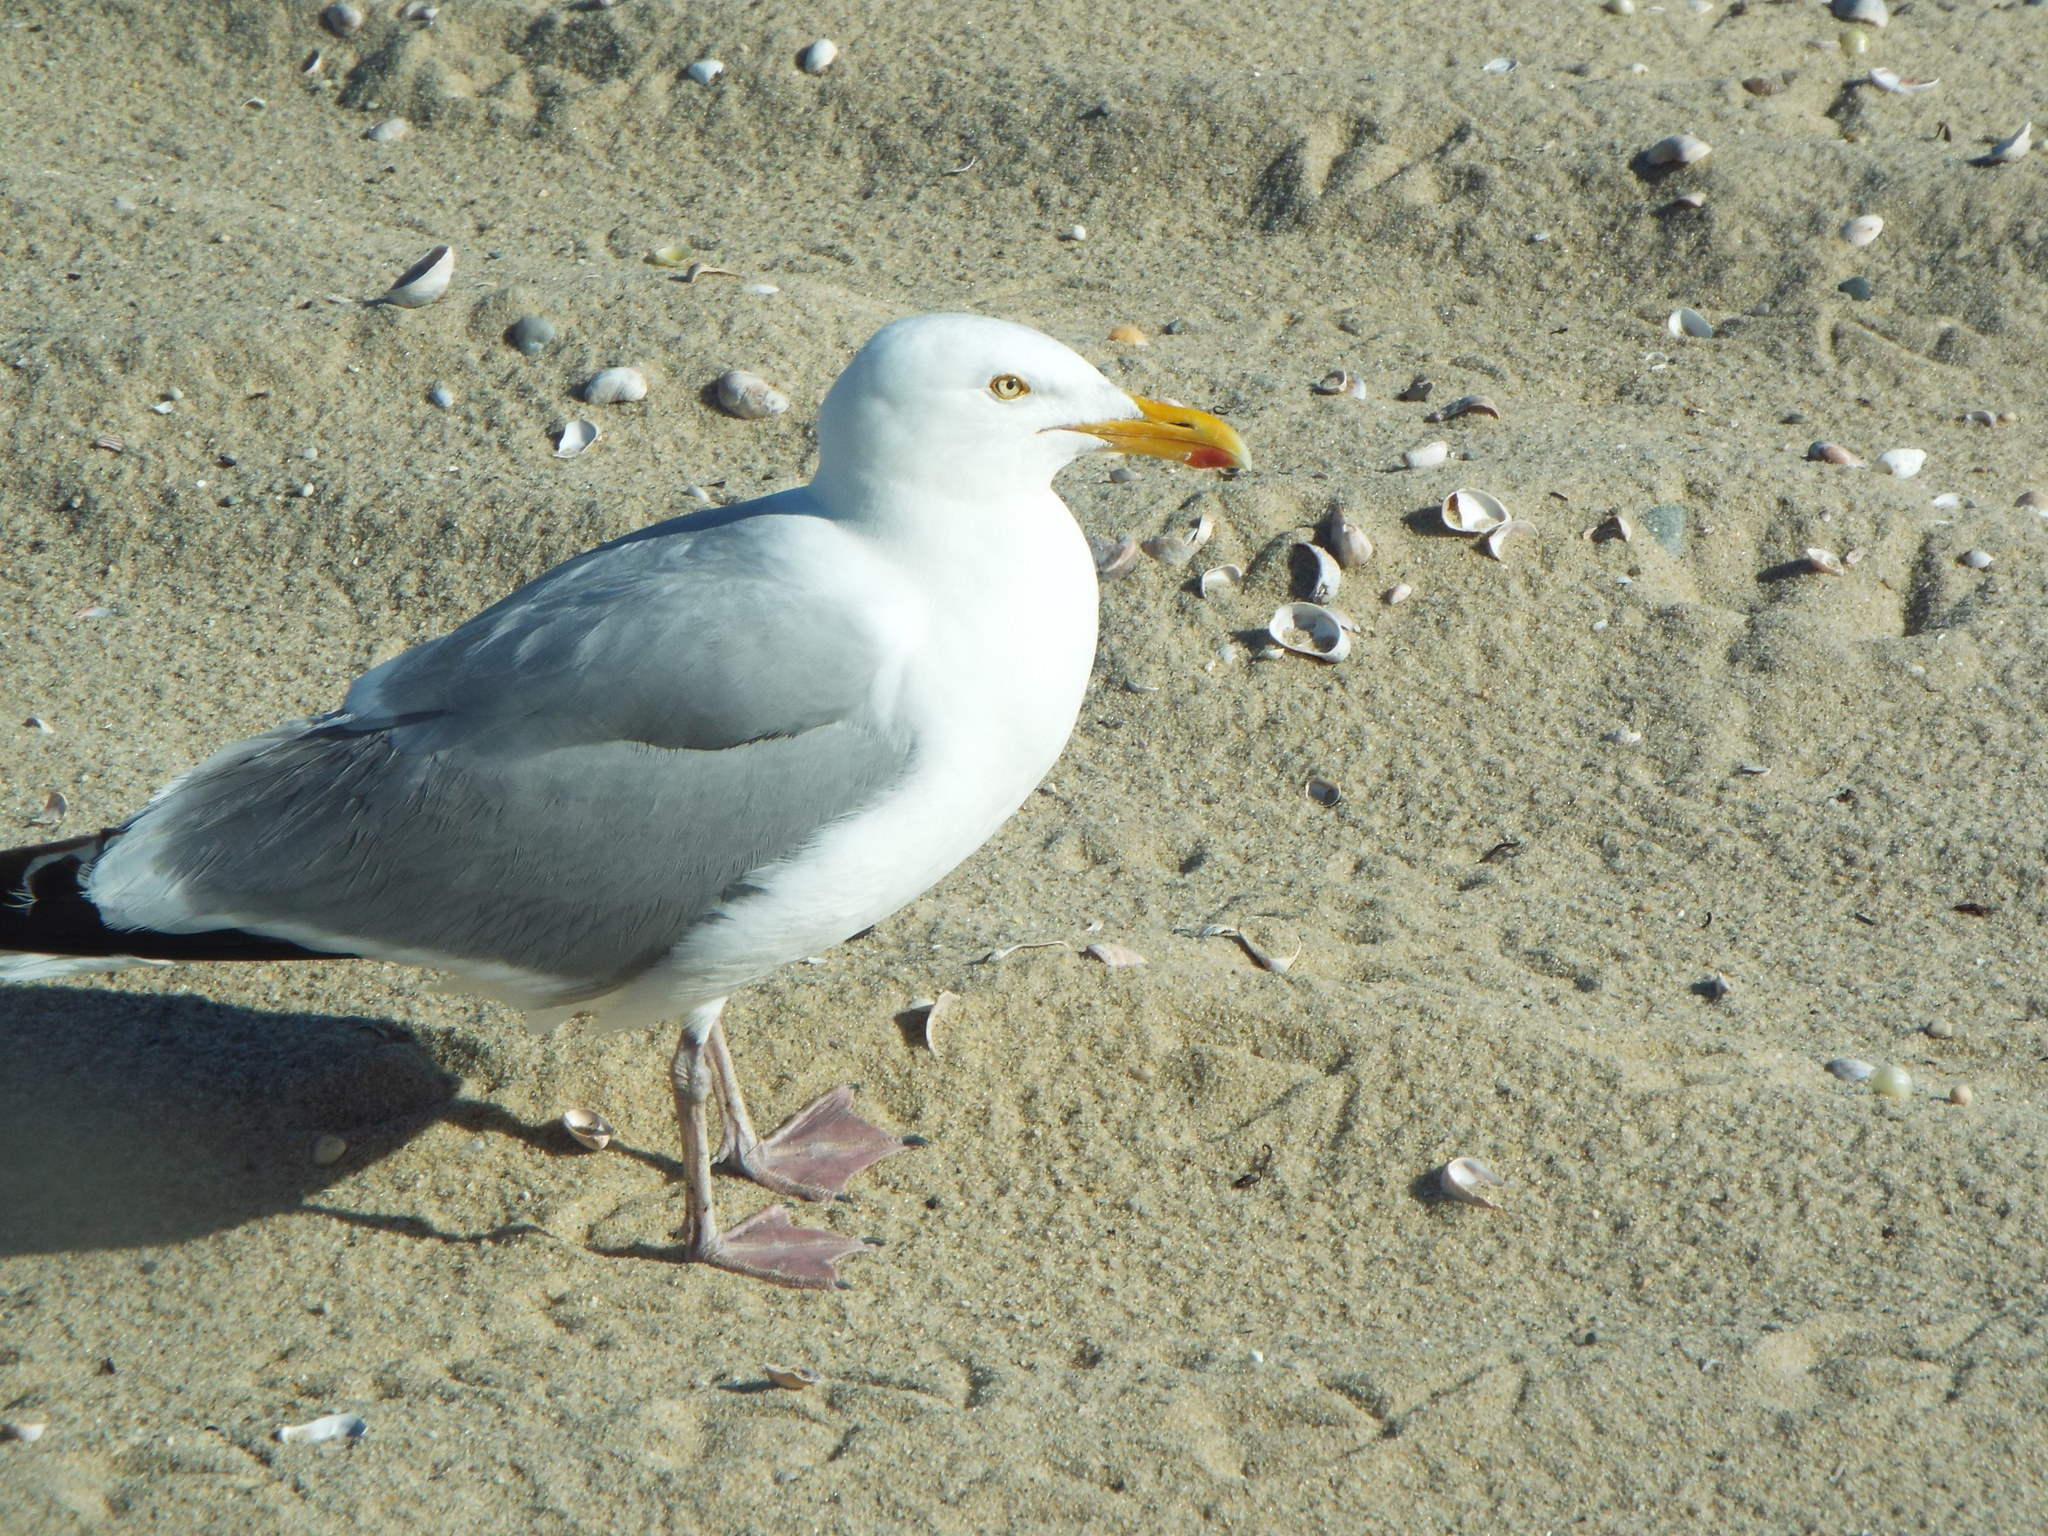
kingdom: Animalia
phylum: Chordata
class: Aves
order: Charadriiformes
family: Laridae
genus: Larus
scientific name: Larus argentatus
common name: Herring gull
